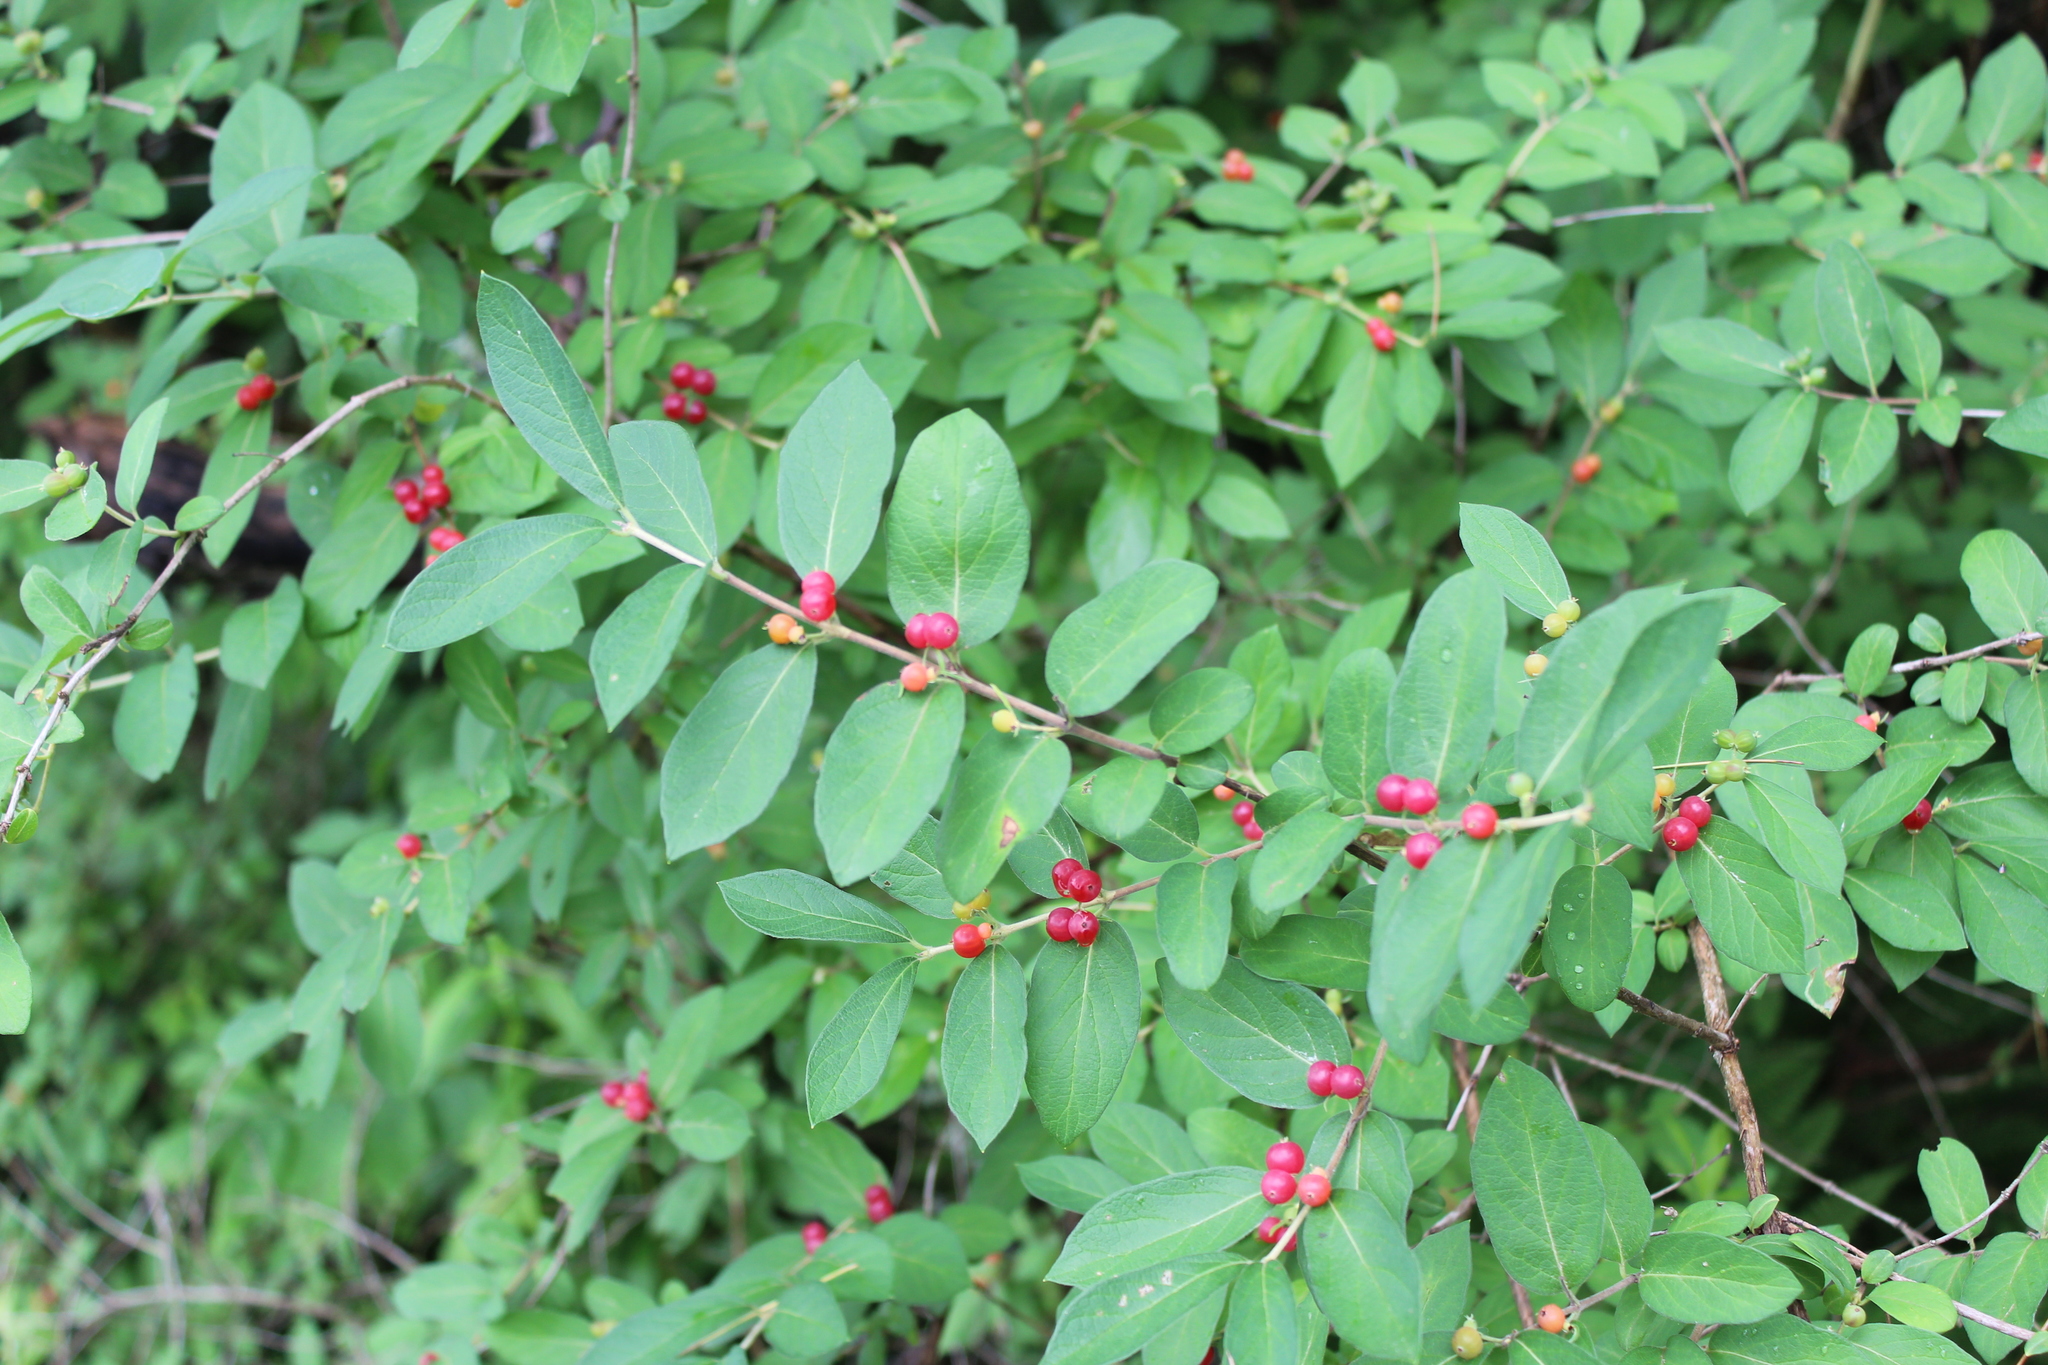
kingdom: Plantae
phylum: Tracheophyta
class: Magnoliopsida
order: Dipsacales
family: Caprifoliaceae
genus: Lonicera
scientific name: Lonicera morrowii
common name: Morrow's honeysuckle
